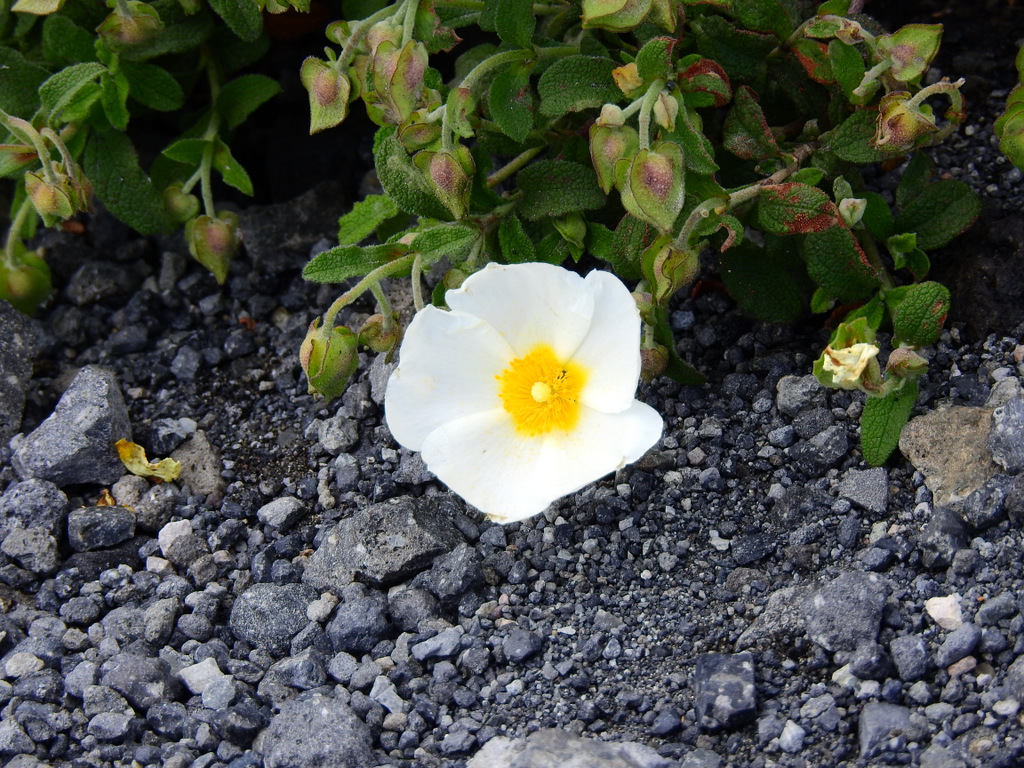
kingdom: Plantae
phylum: Tracheophyta
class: Magnoliopsida
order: Malvales
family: Cistaceae
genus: Cistus
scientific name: Cistus salviifolius
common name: Salvia cistus
